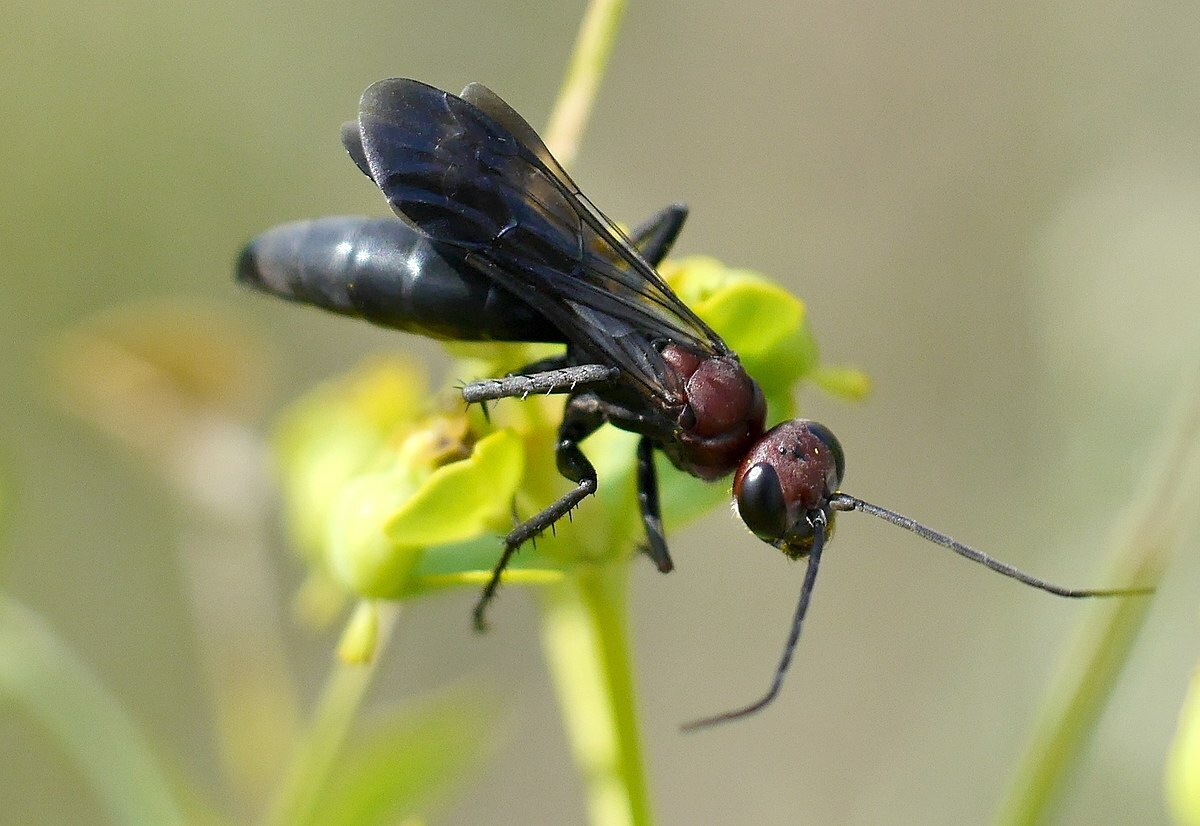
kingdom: Animalia
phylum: Arthropoda
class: Insecta
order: Hymenoptera
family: Pompilidae
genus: Agenioideus
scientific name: Agenioideus dichrous
